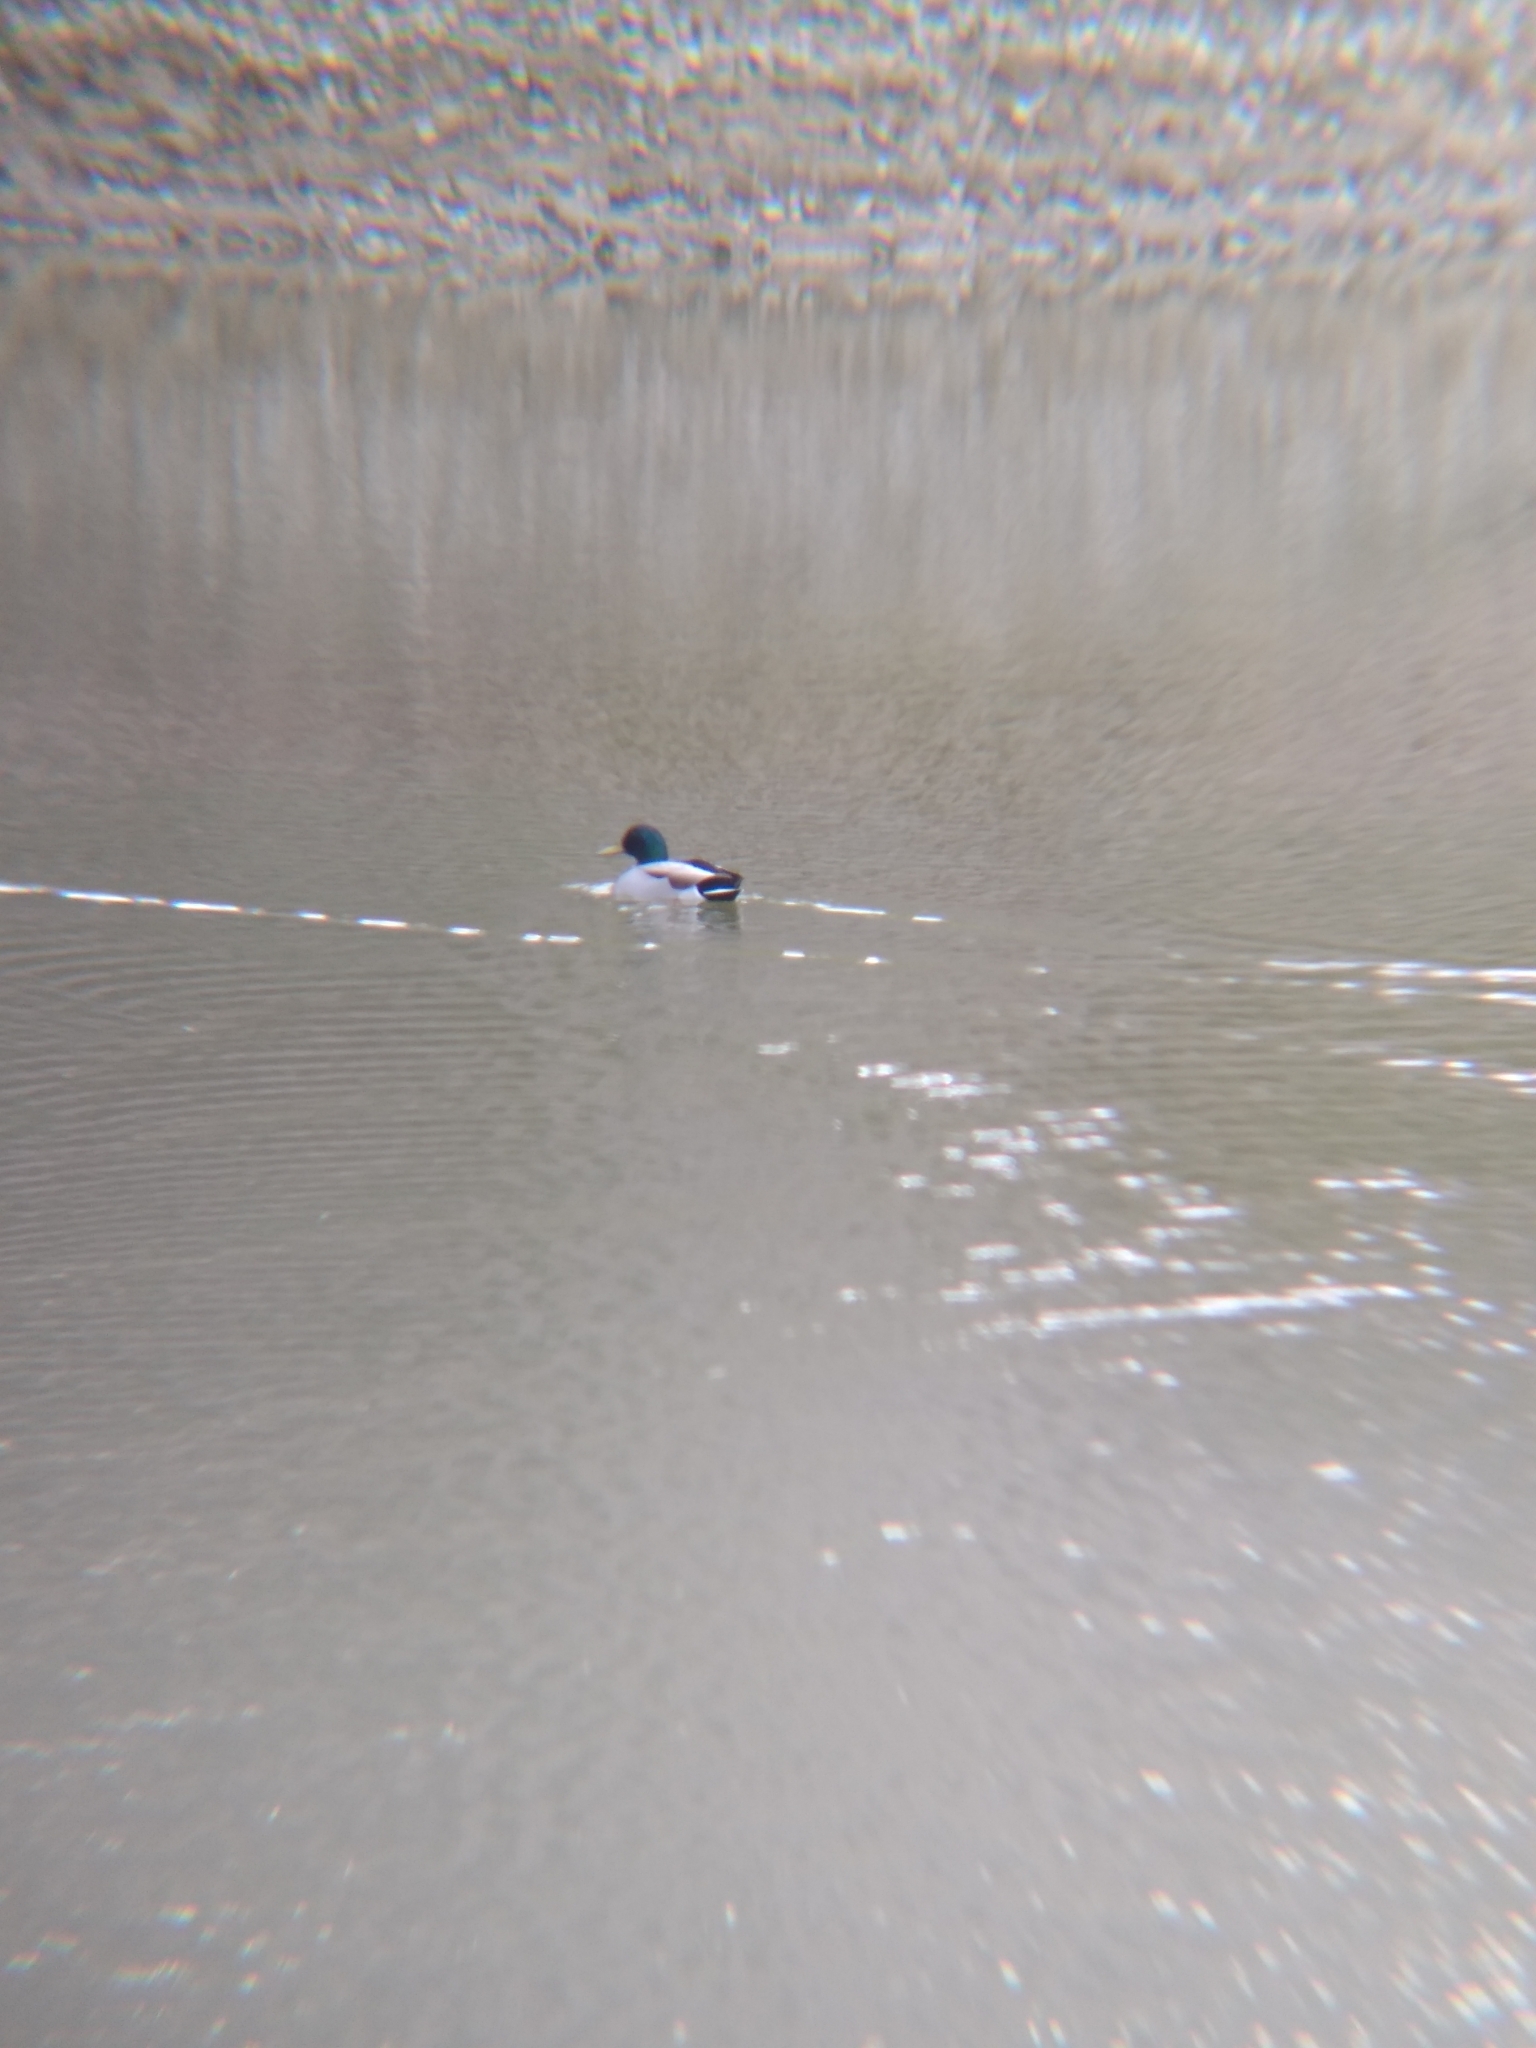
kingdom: Animalia
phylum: Chordata
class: Aves
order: Anseriformes
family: Anatidae
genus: Anas
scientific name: Anas platyrhynchos
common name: Mallard
